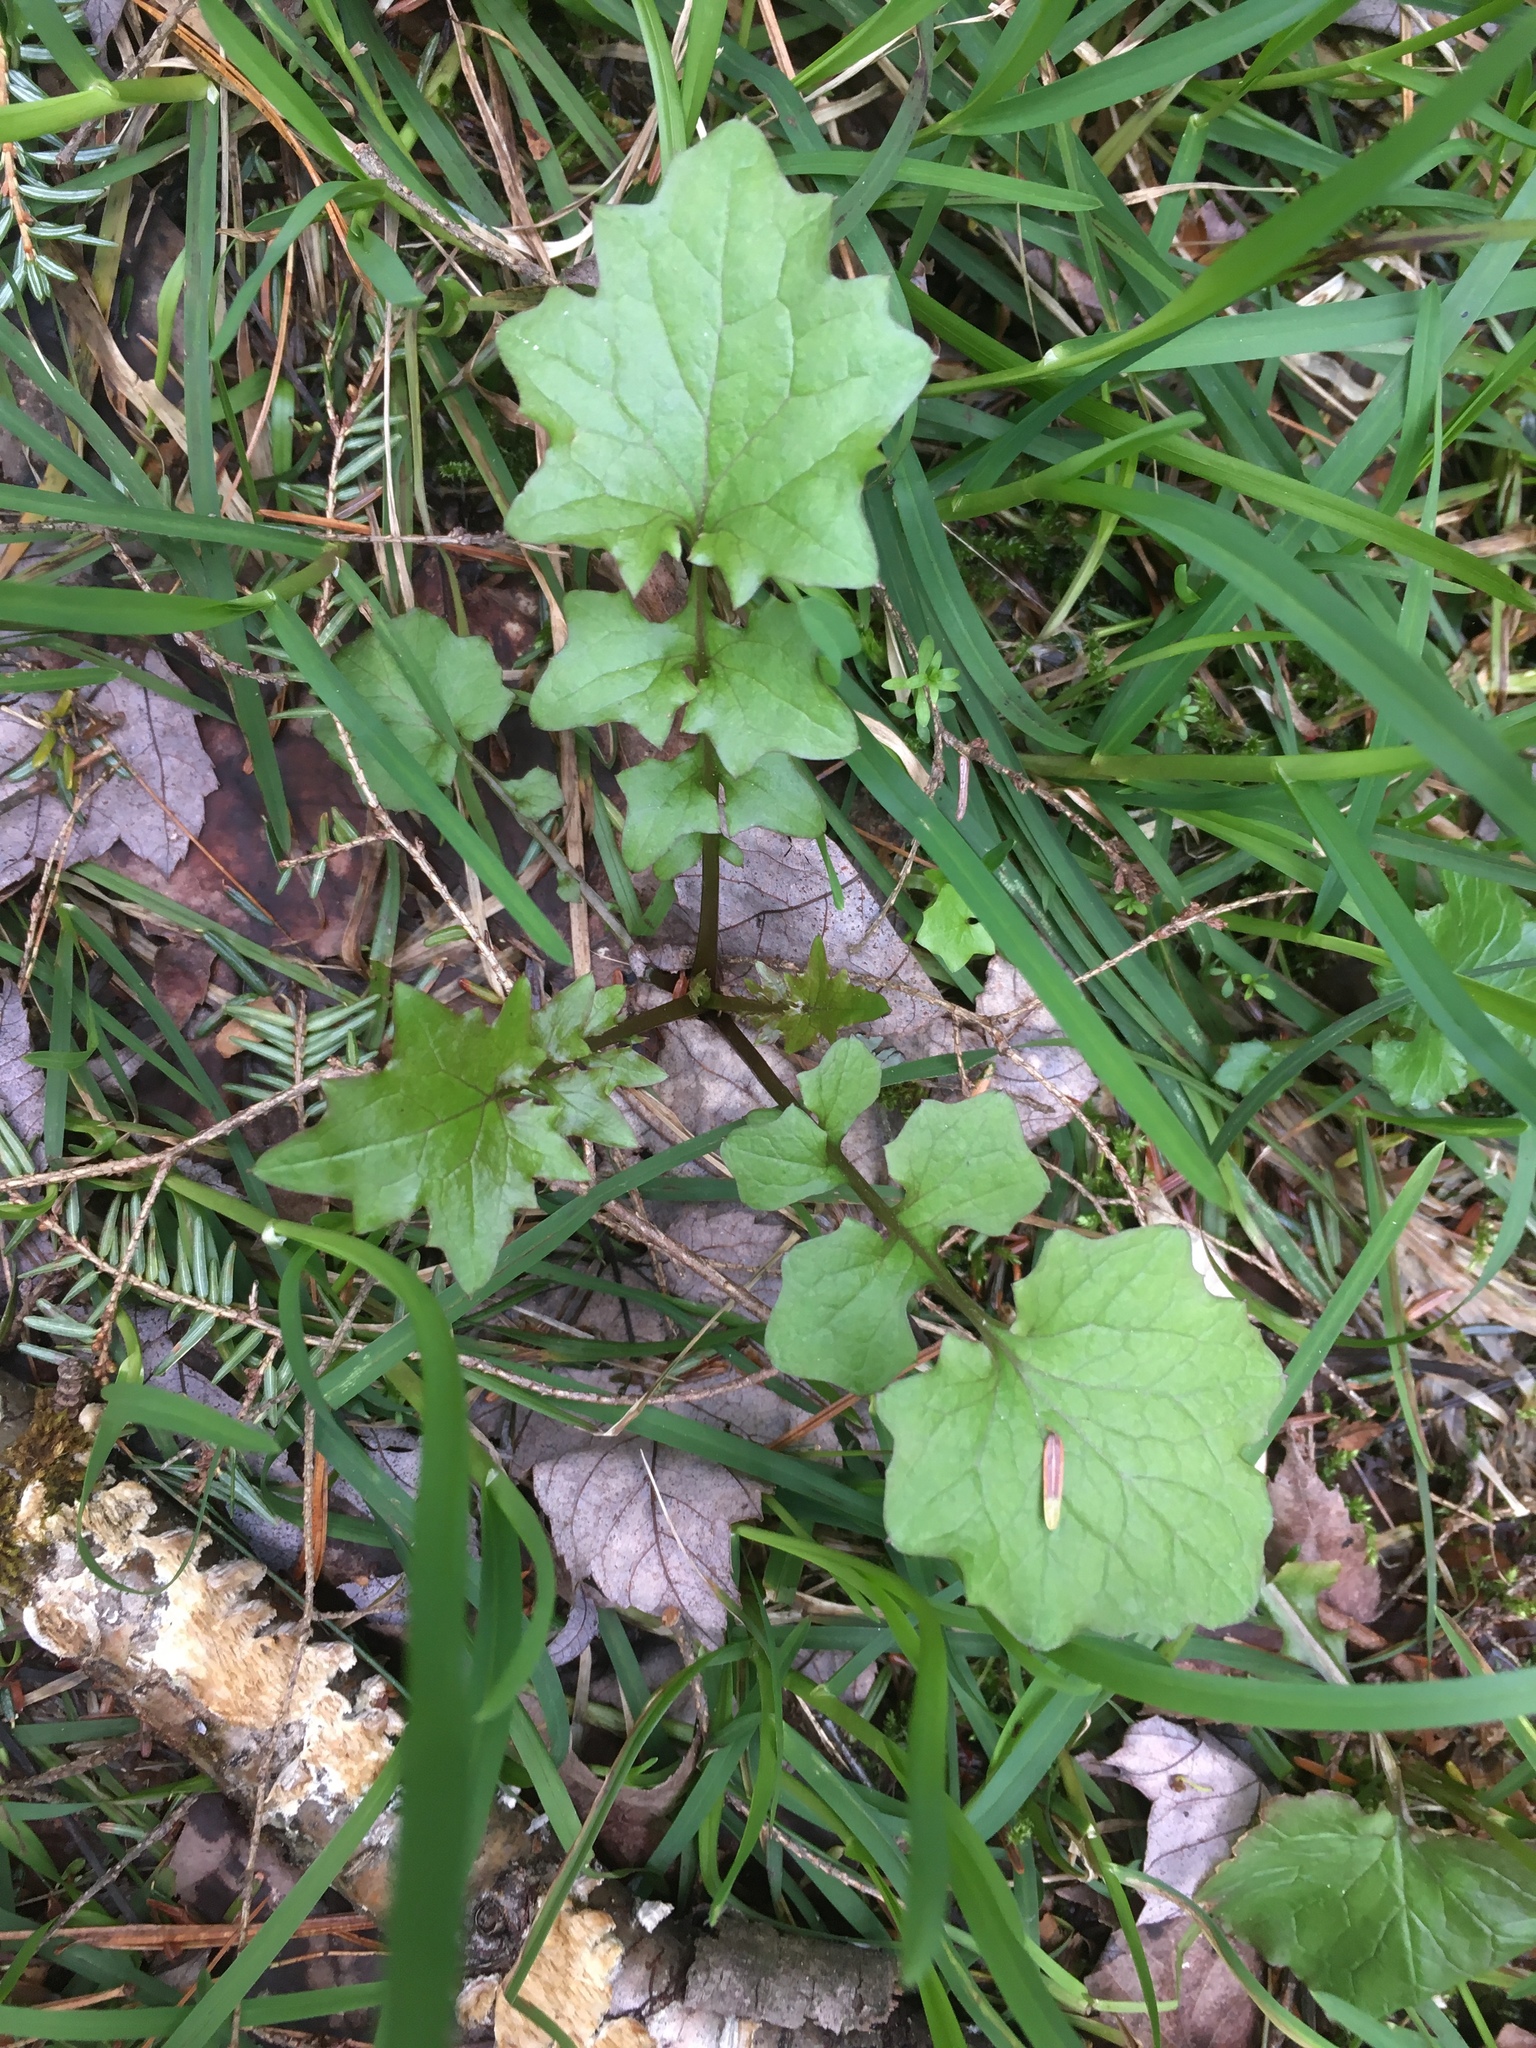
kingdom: Plantae
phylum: Tracheophyta
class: Magnoliopsida
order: Asterales
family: Asteraceae
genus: Mycelis
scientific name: Mycelis muralis
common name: Wall lettuce
